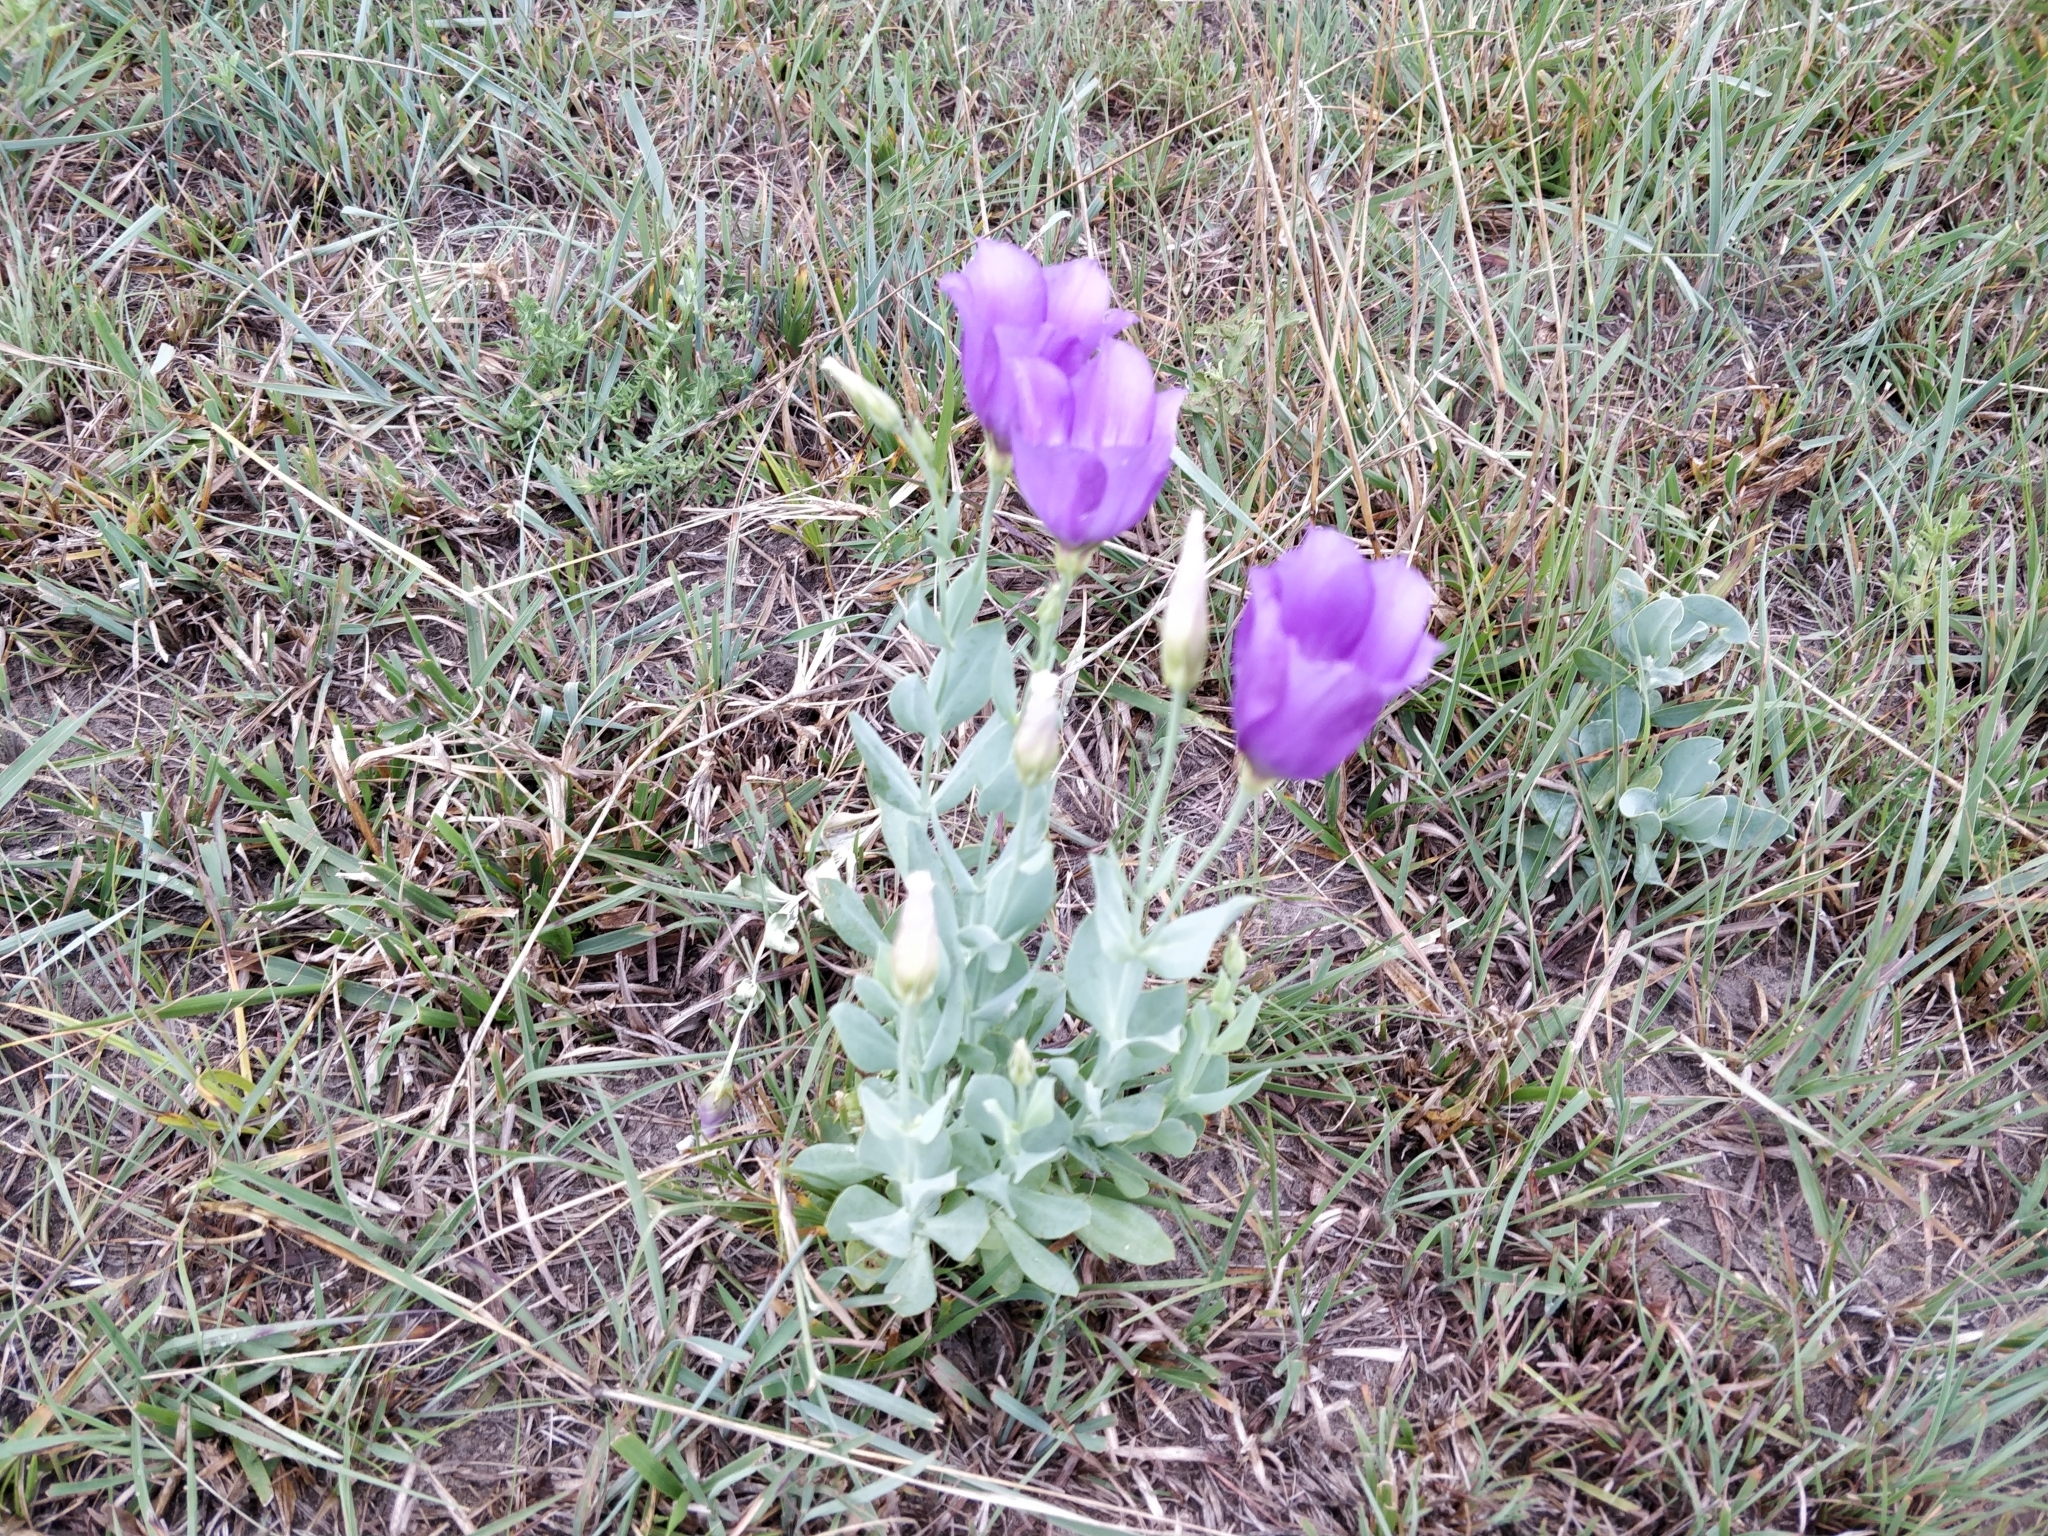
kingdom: Plantae
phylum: Tracheophyta
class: Magnoliopsida
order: Gentianales
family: Gentianaceae
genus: Eustoma
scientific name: Eustoma exaltatum
